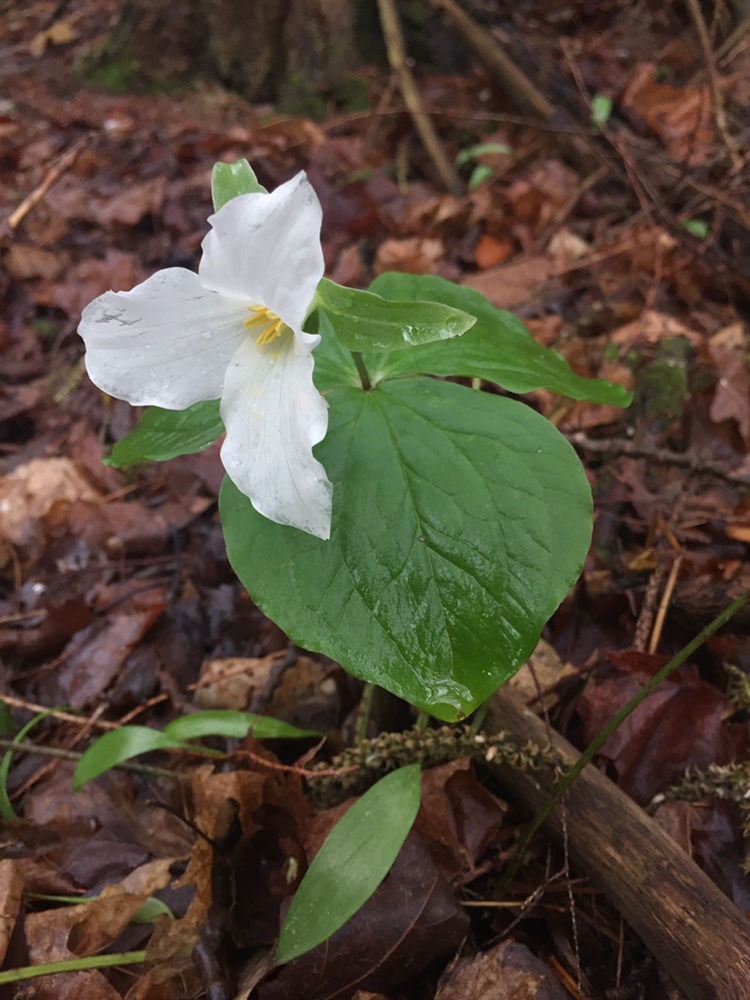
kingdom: Plantae
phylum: Tracheophyta
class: Liliopsida
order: Liliales
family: Melanthiaceae
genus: Trillium
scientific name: Trillium grandiflorum
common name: Great white trillium
